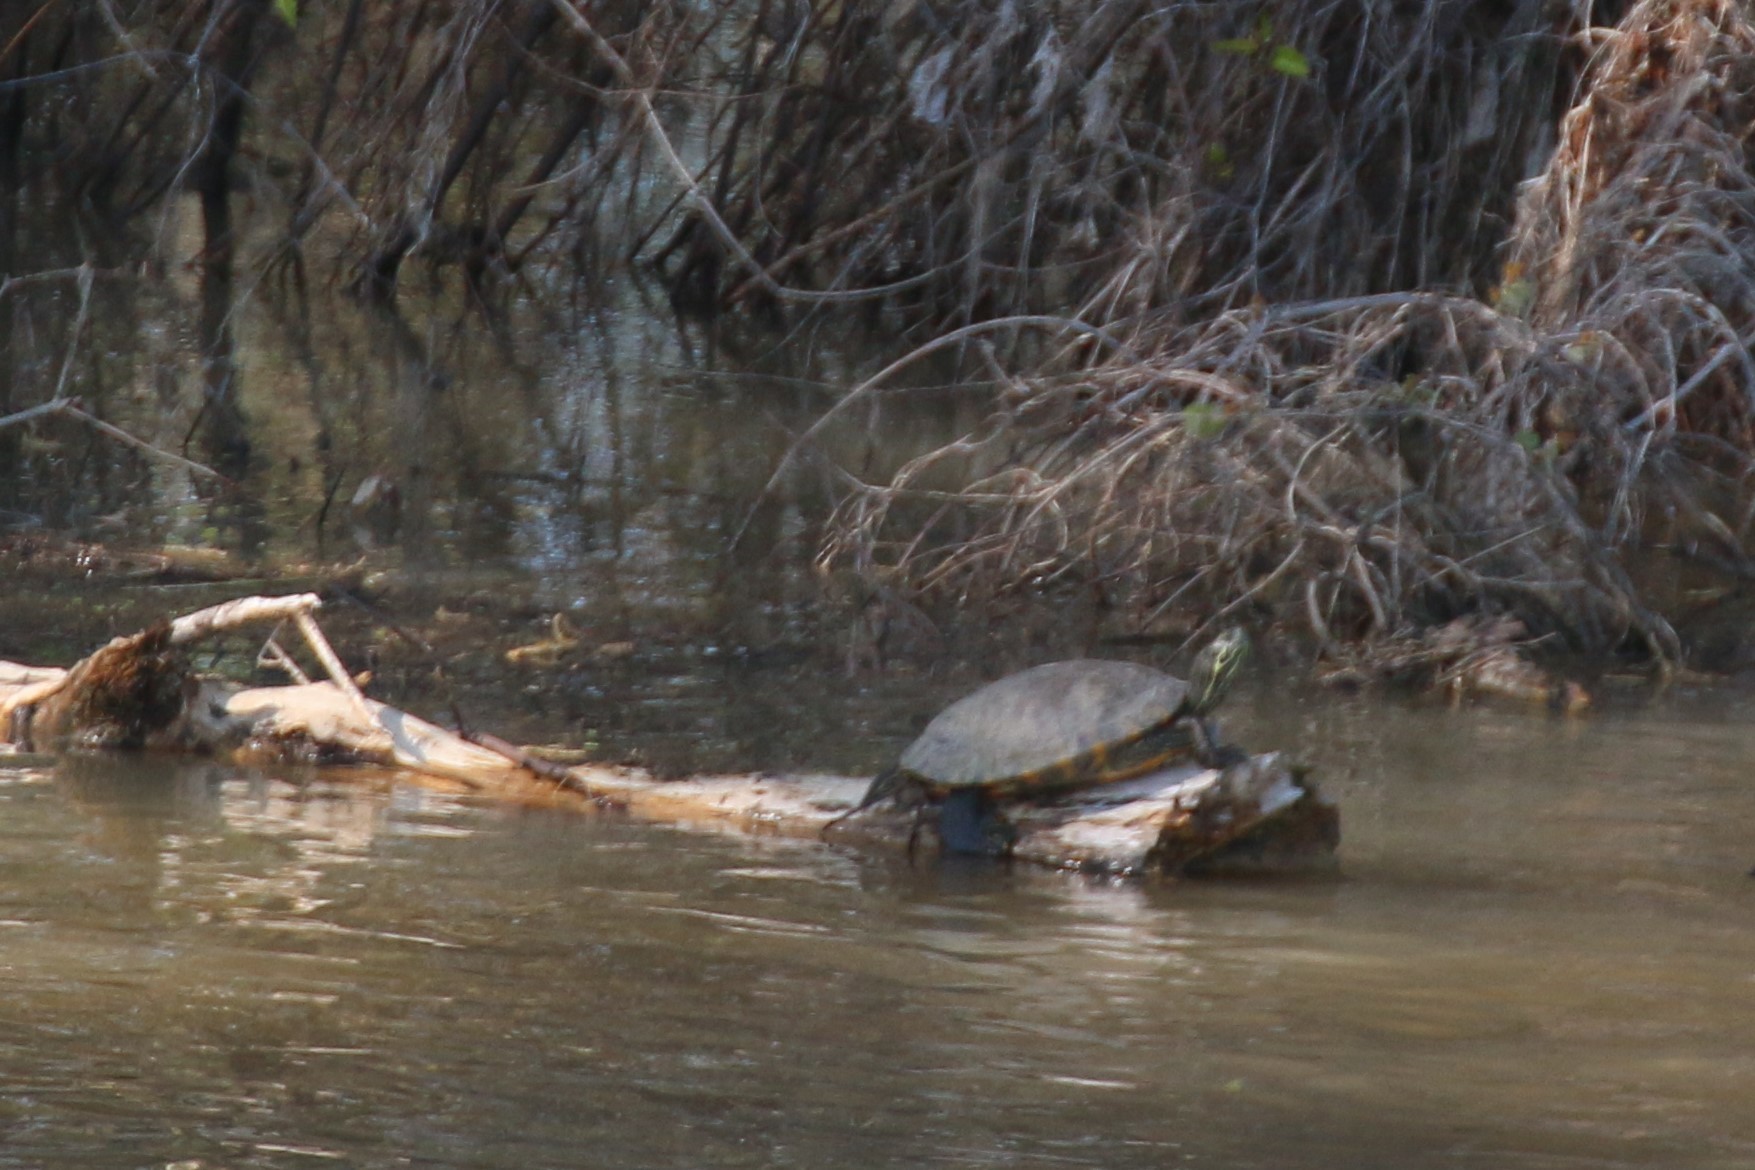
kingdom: Animalia
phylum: Chordata
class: Testudines
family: Emydidae
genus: Pseudemys
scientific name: Pseudemys concinna
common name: Eastern river cooter
